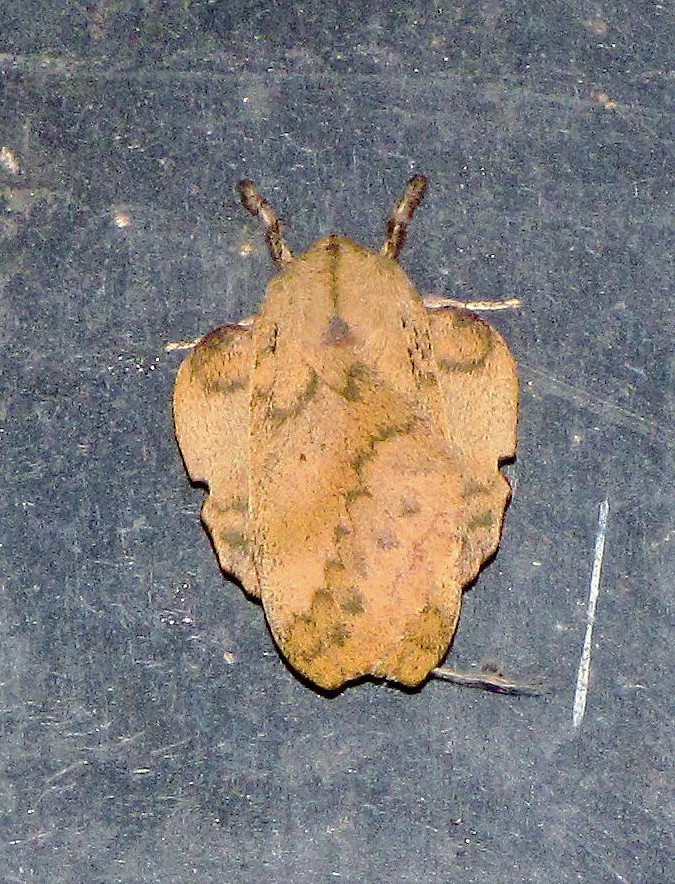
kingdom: Animalia
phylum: Arthropoda
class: Insecta
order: Lepidoptera
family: Saturniidae
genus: Travassosula
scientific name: Travassosula subfumata
